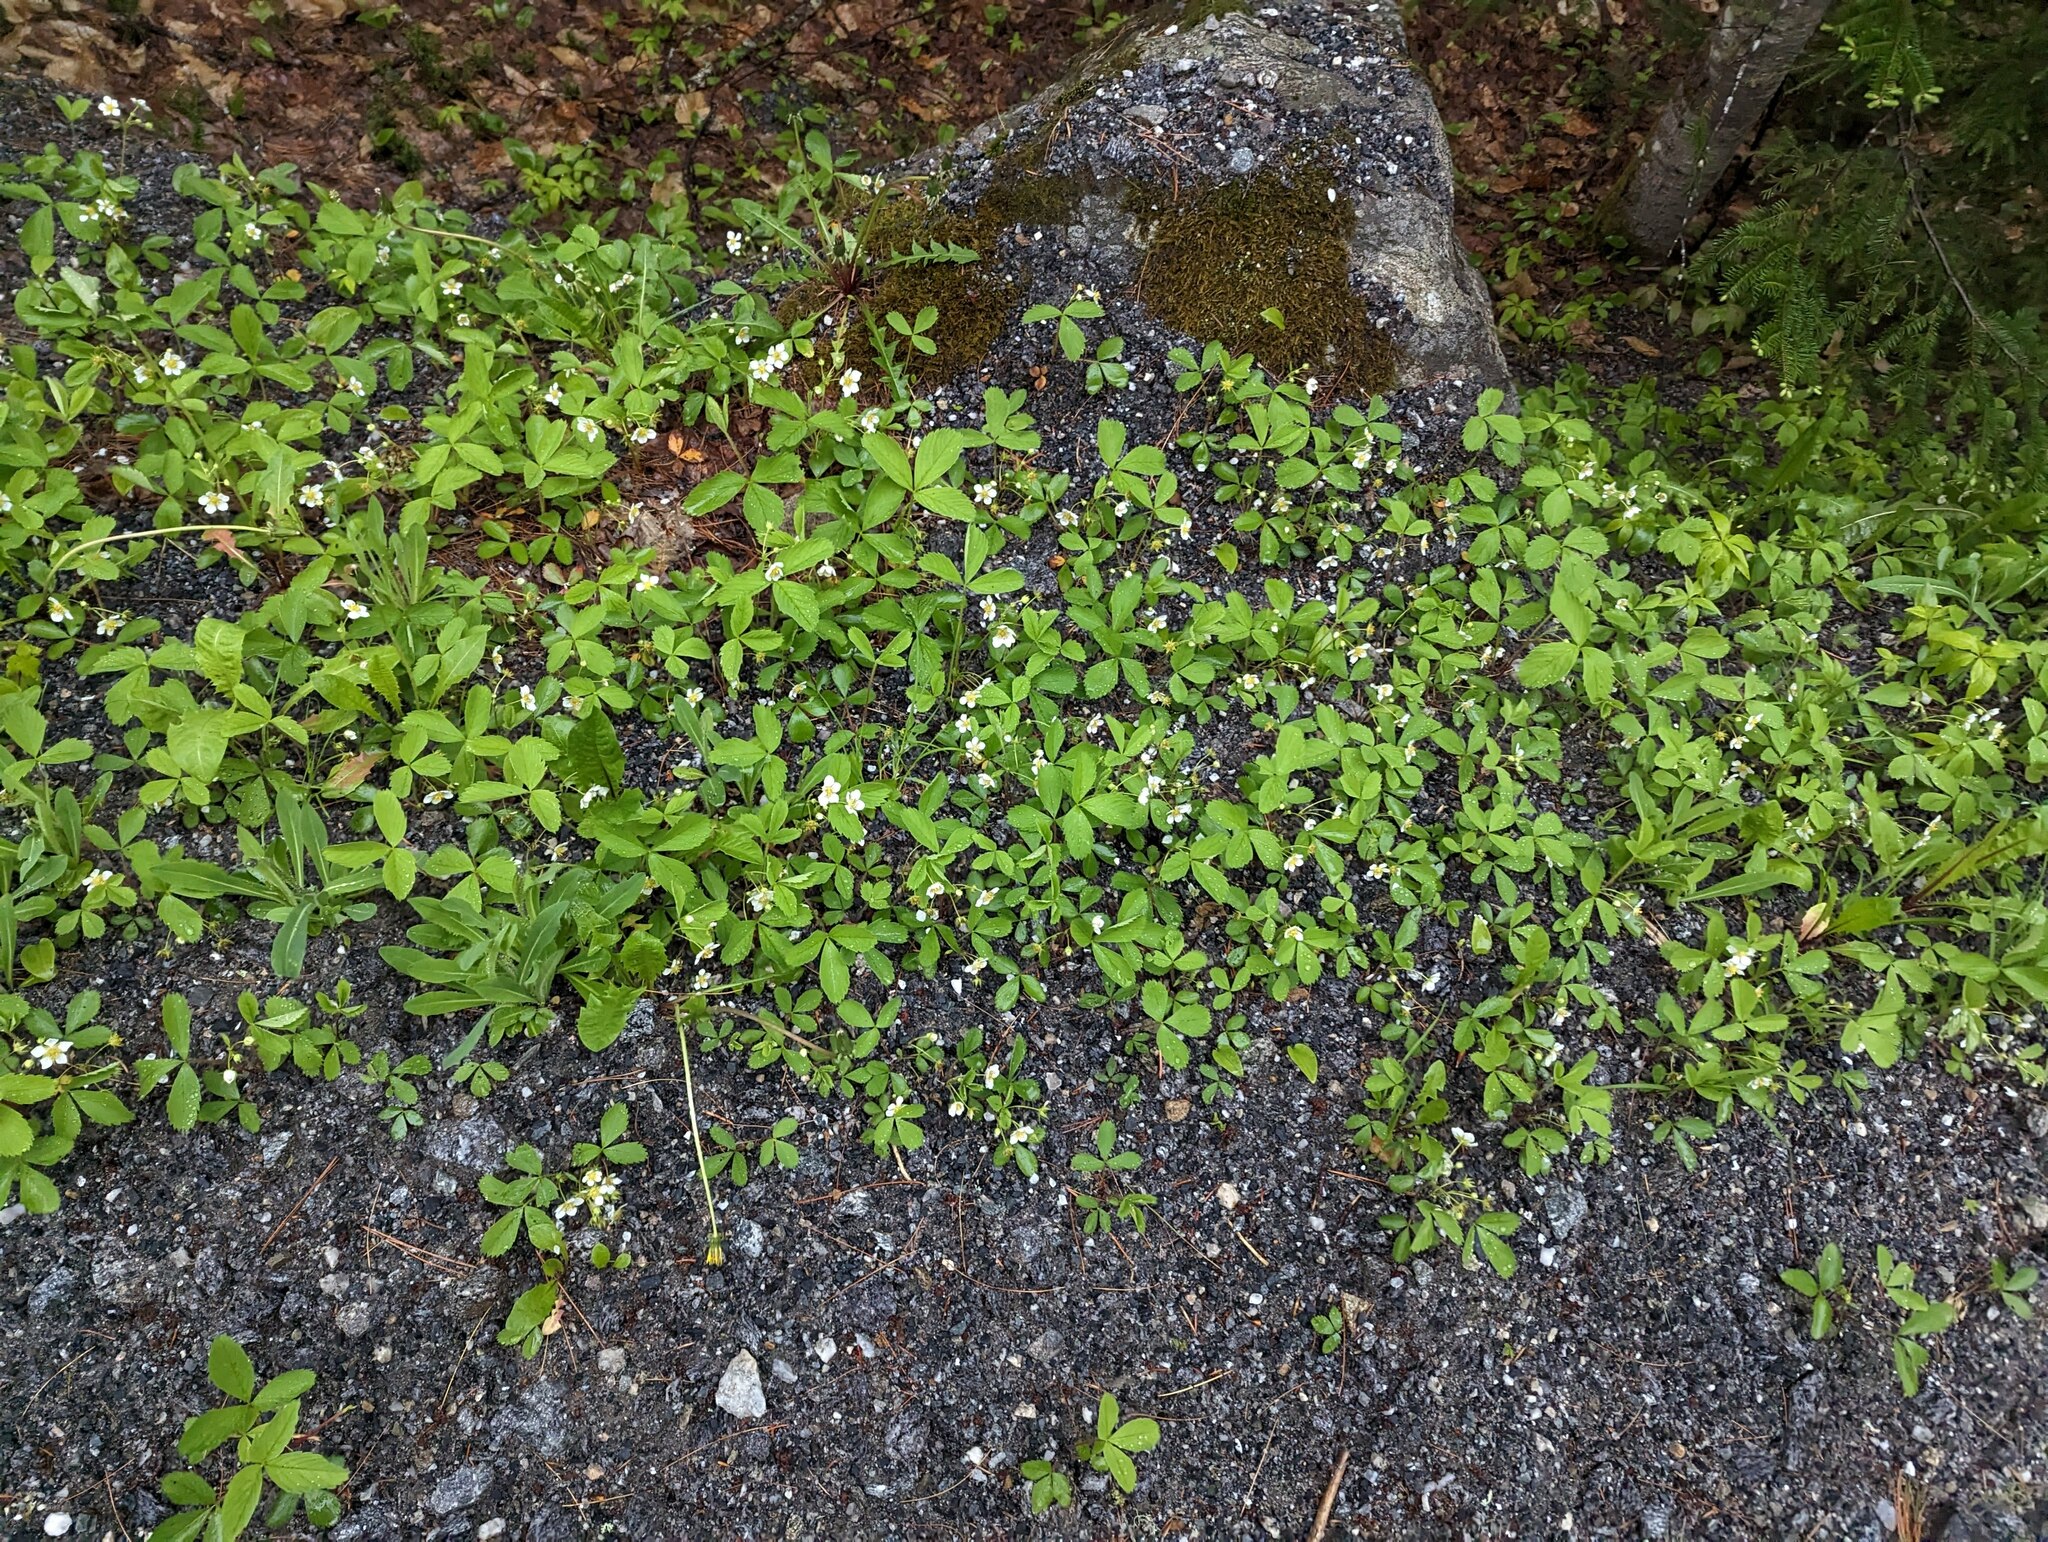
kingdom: Plantae
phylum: Tracheophyta
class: Magnoliopsida
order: Rosales
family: Rosaceae
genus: Fragaria
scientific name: Fragaria virginiana
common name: Thickleaved wild strawberry
